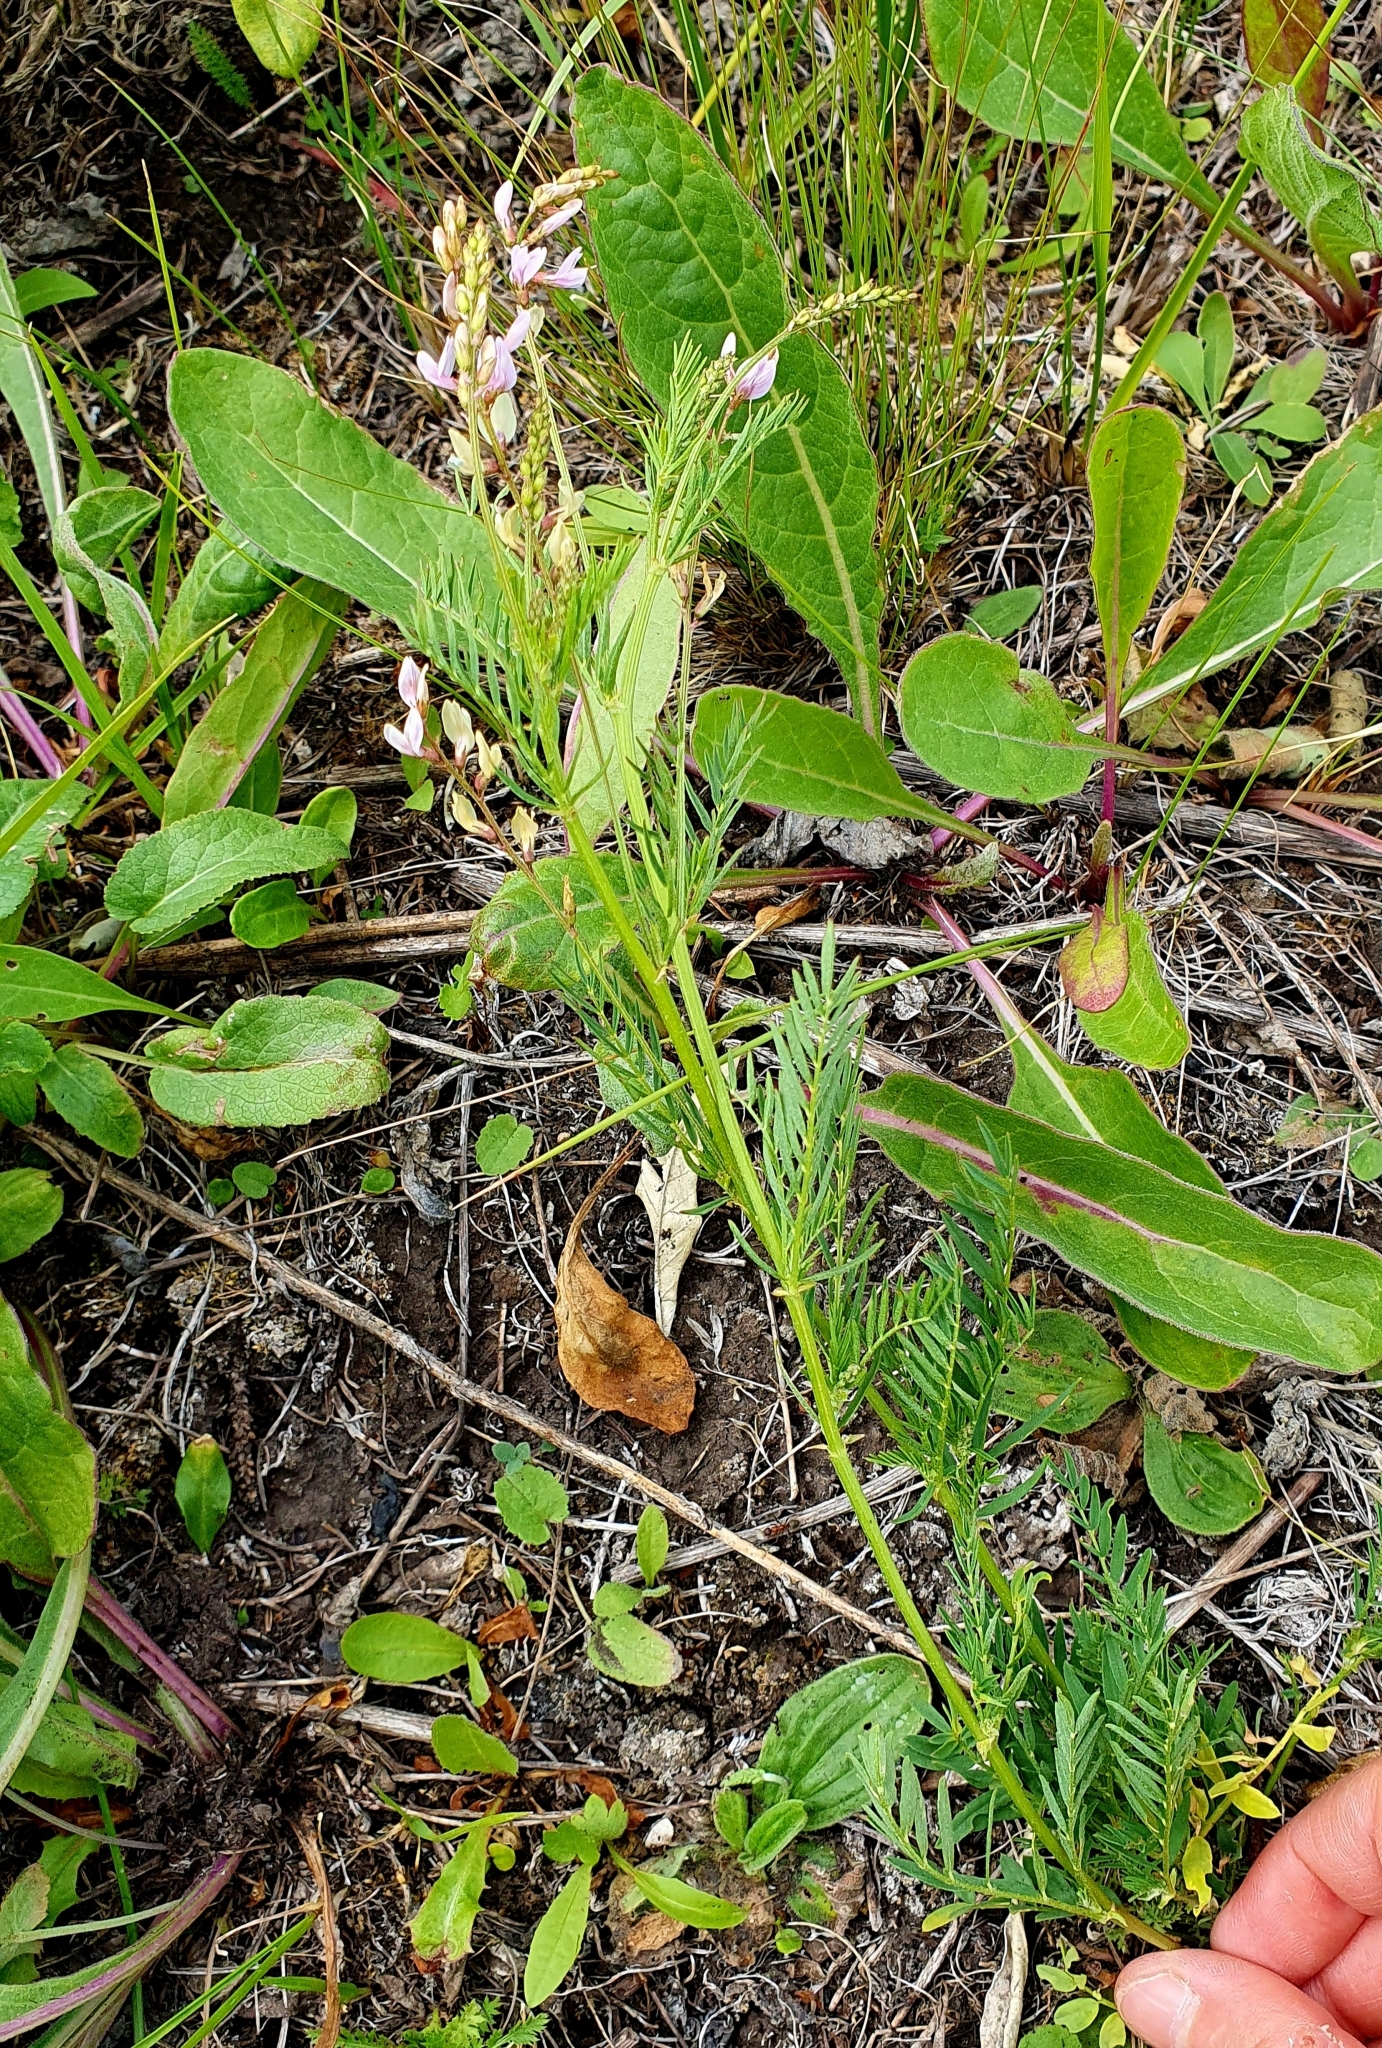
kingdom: Plantae
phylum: Tracheophyta
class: Magnoliopsida
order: Fabales
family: Fabaceae
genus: Astragalus
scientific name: Astragalus sulcatus
